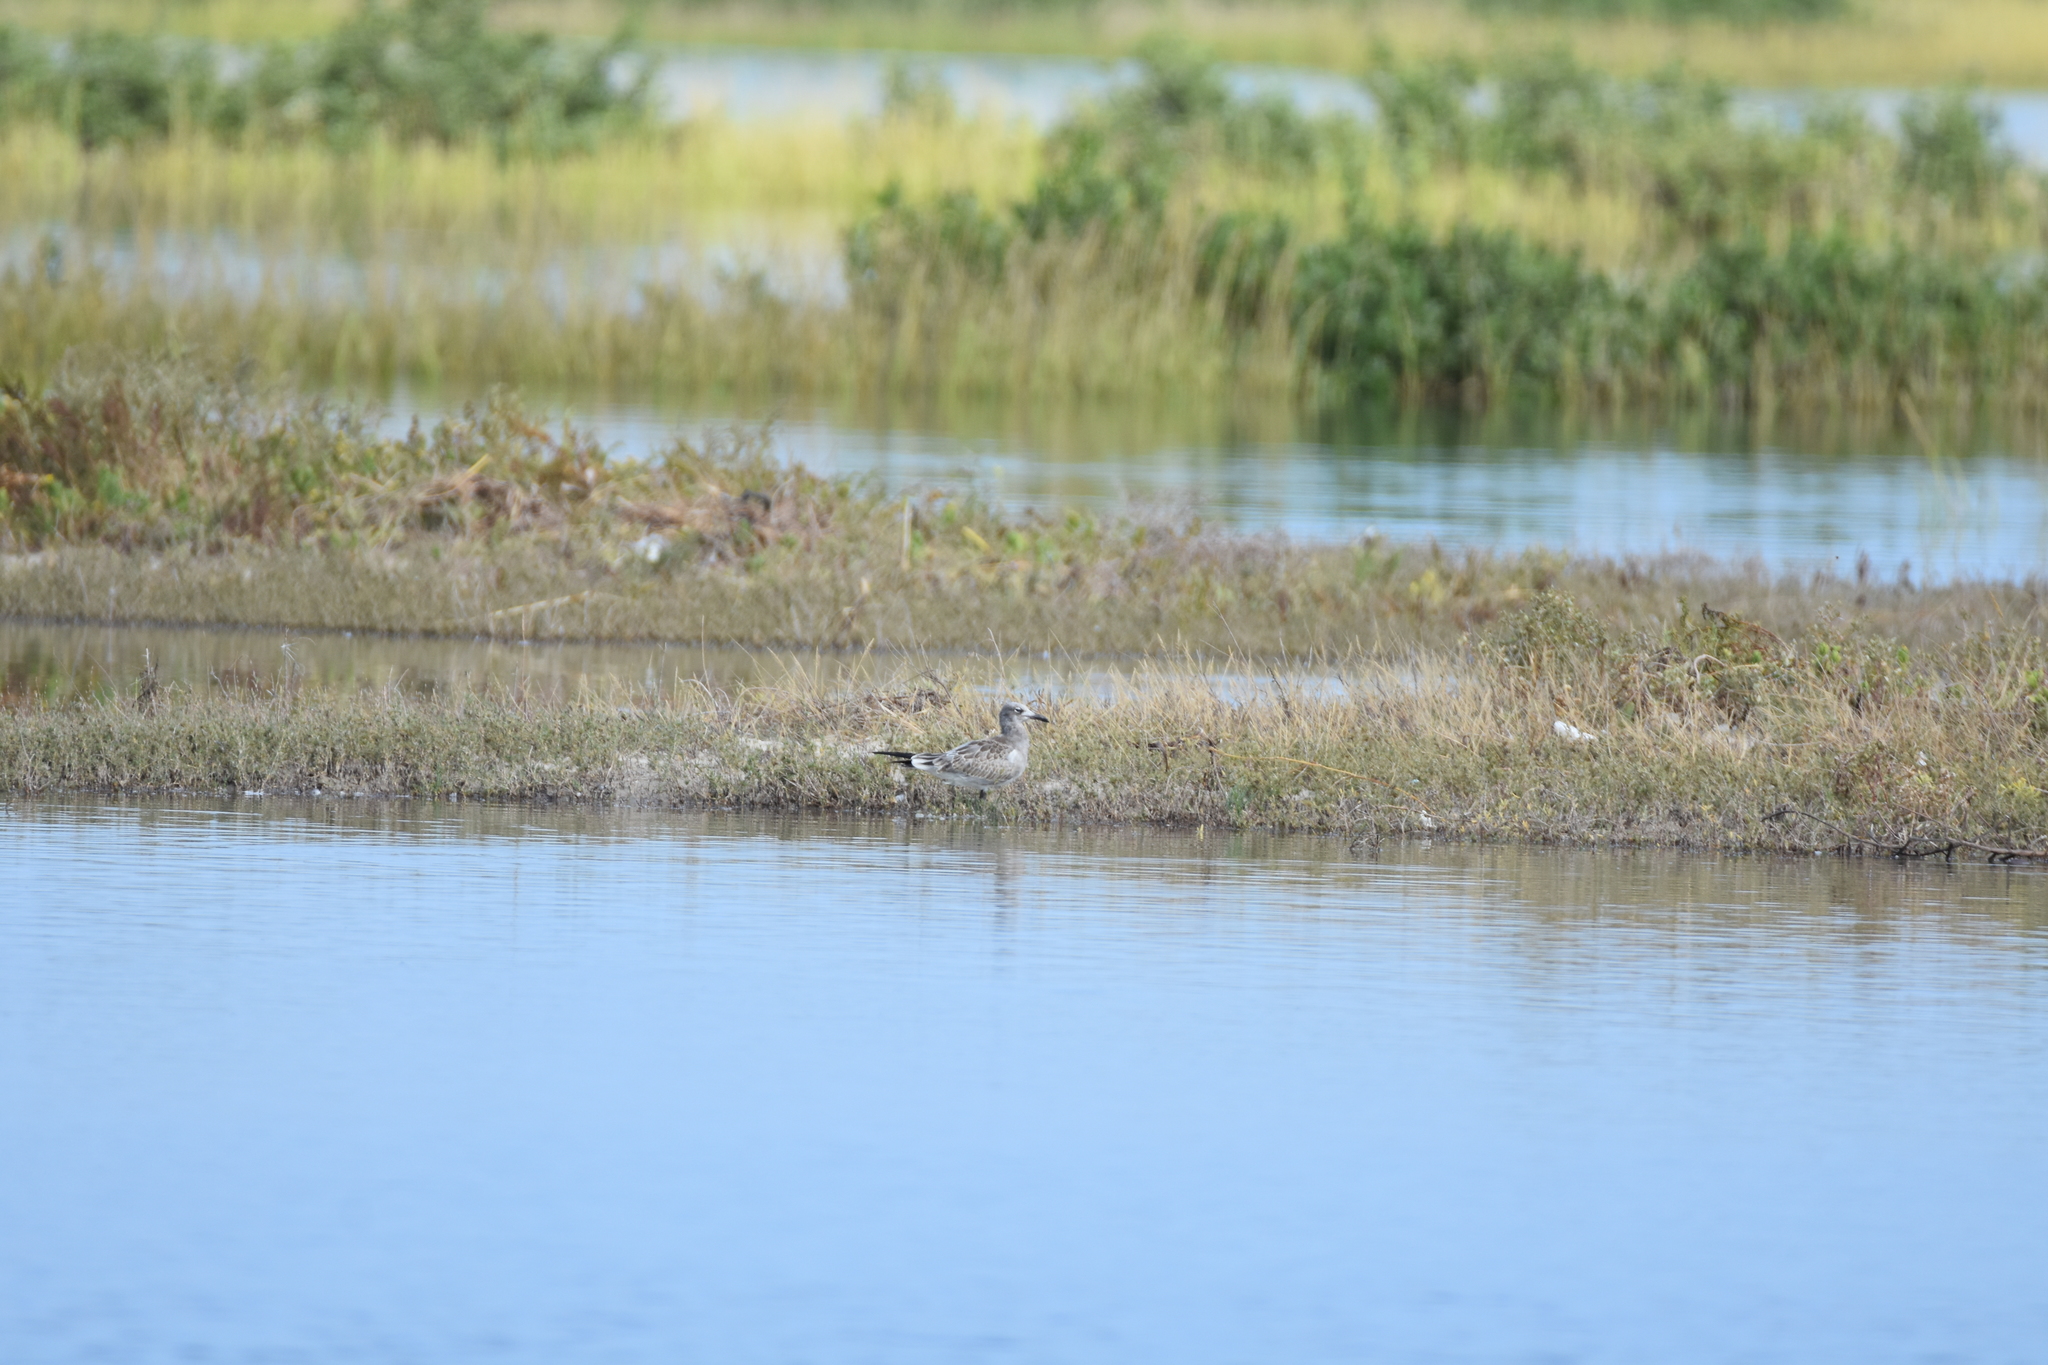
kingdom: Animalia
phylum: Chordata
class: Aves
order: Charadriiformes
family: Laridae
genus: Leucophaeus
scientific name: Leucophaeus atricilla
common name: Laughing gull
